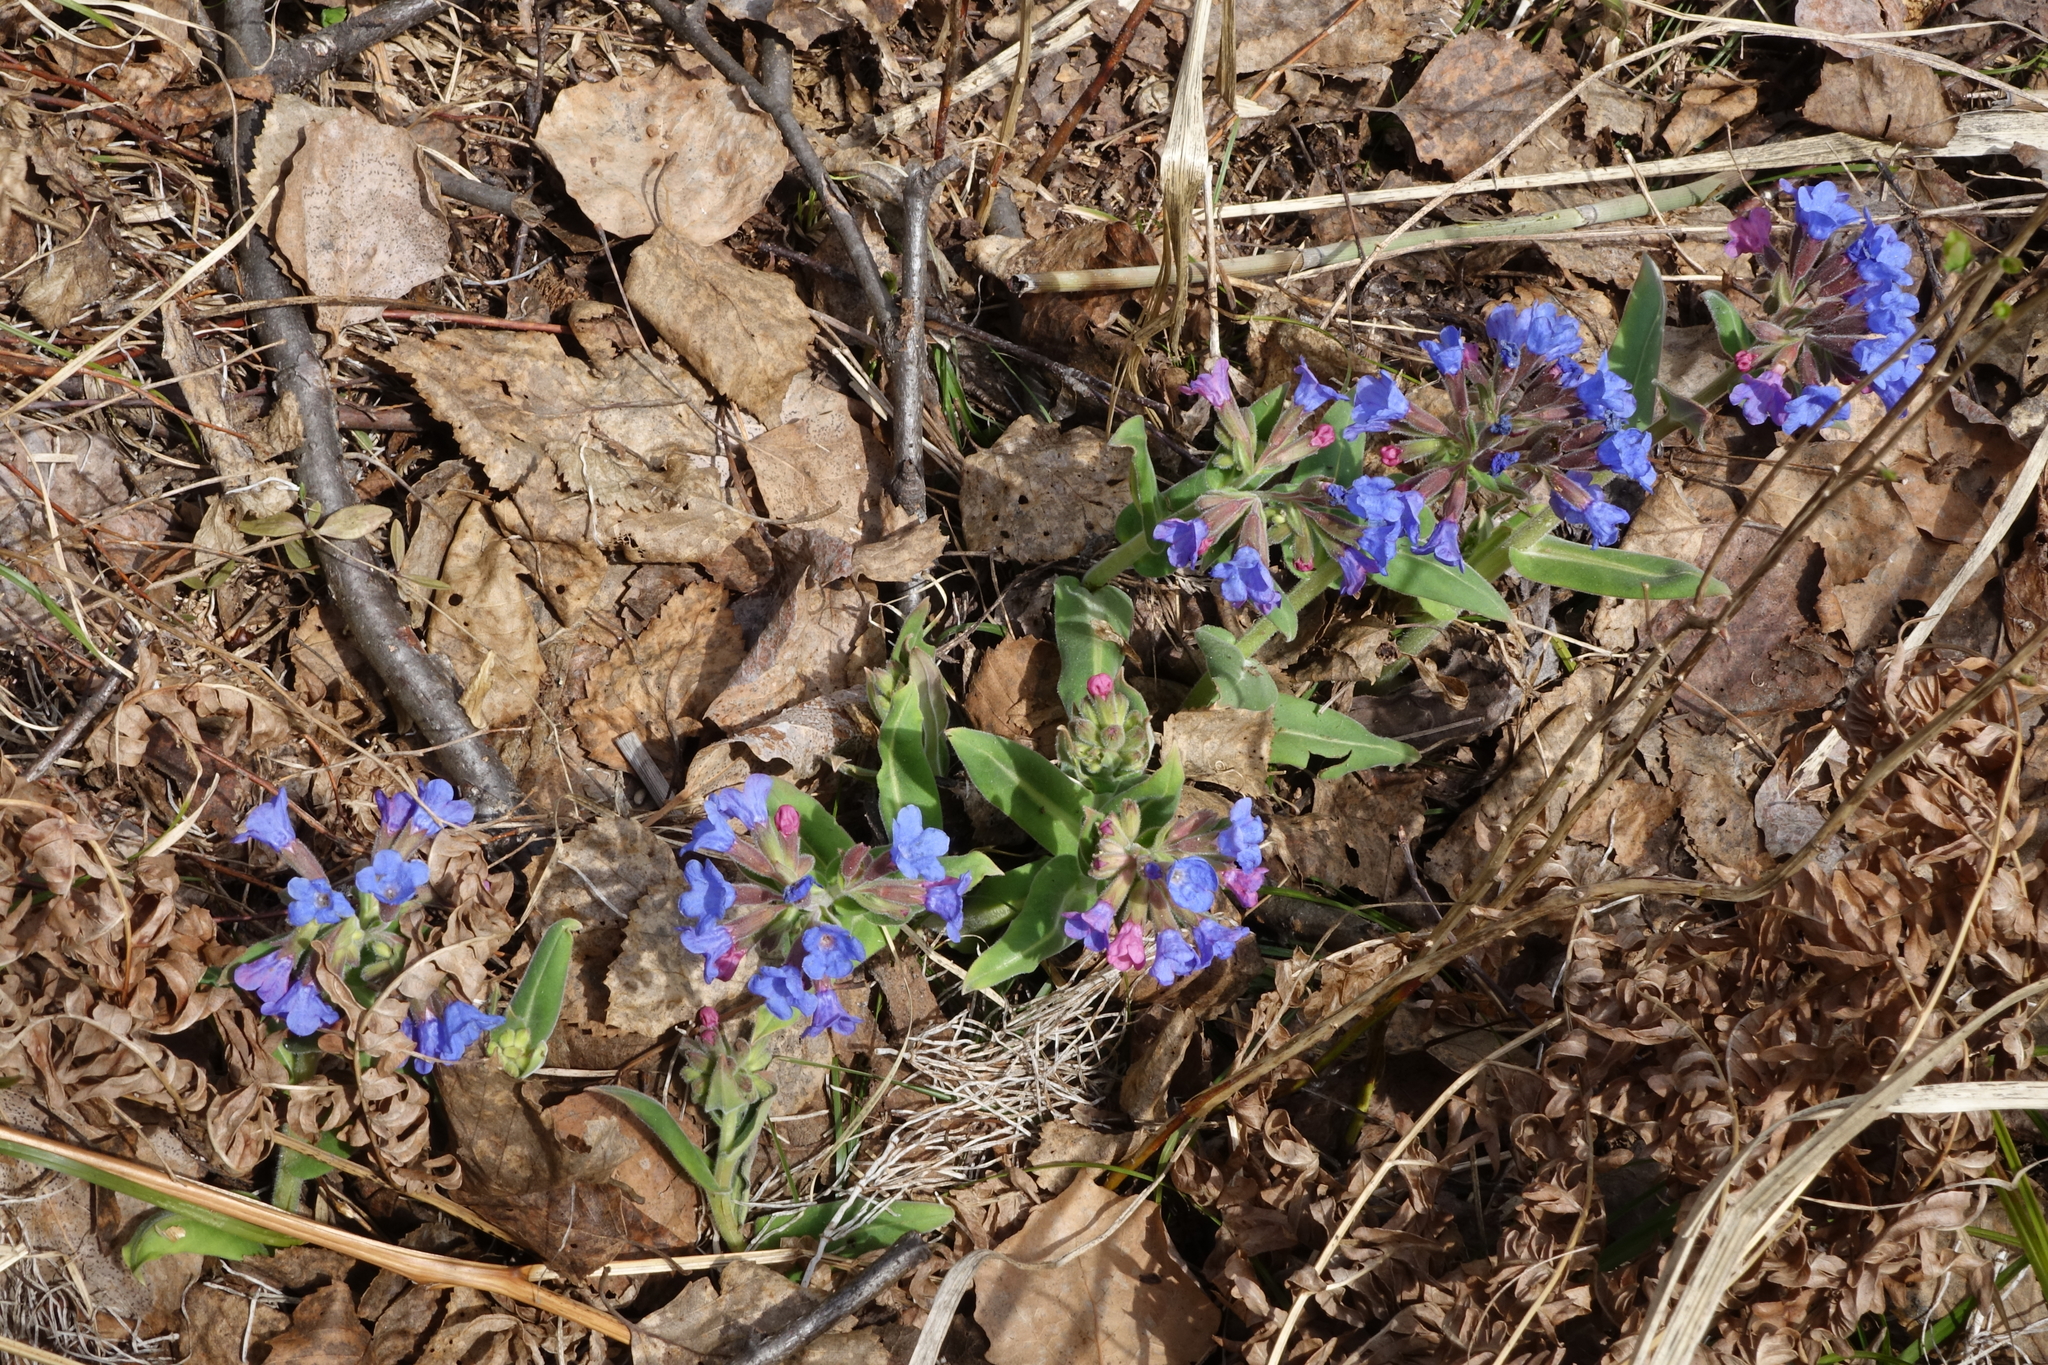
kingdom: Plantae
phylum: Tracheophyta
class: Magnoliopsida
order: Boraginales
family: Boraginaceae
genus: Pulmonaria
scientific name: Pulmonaria mollis
